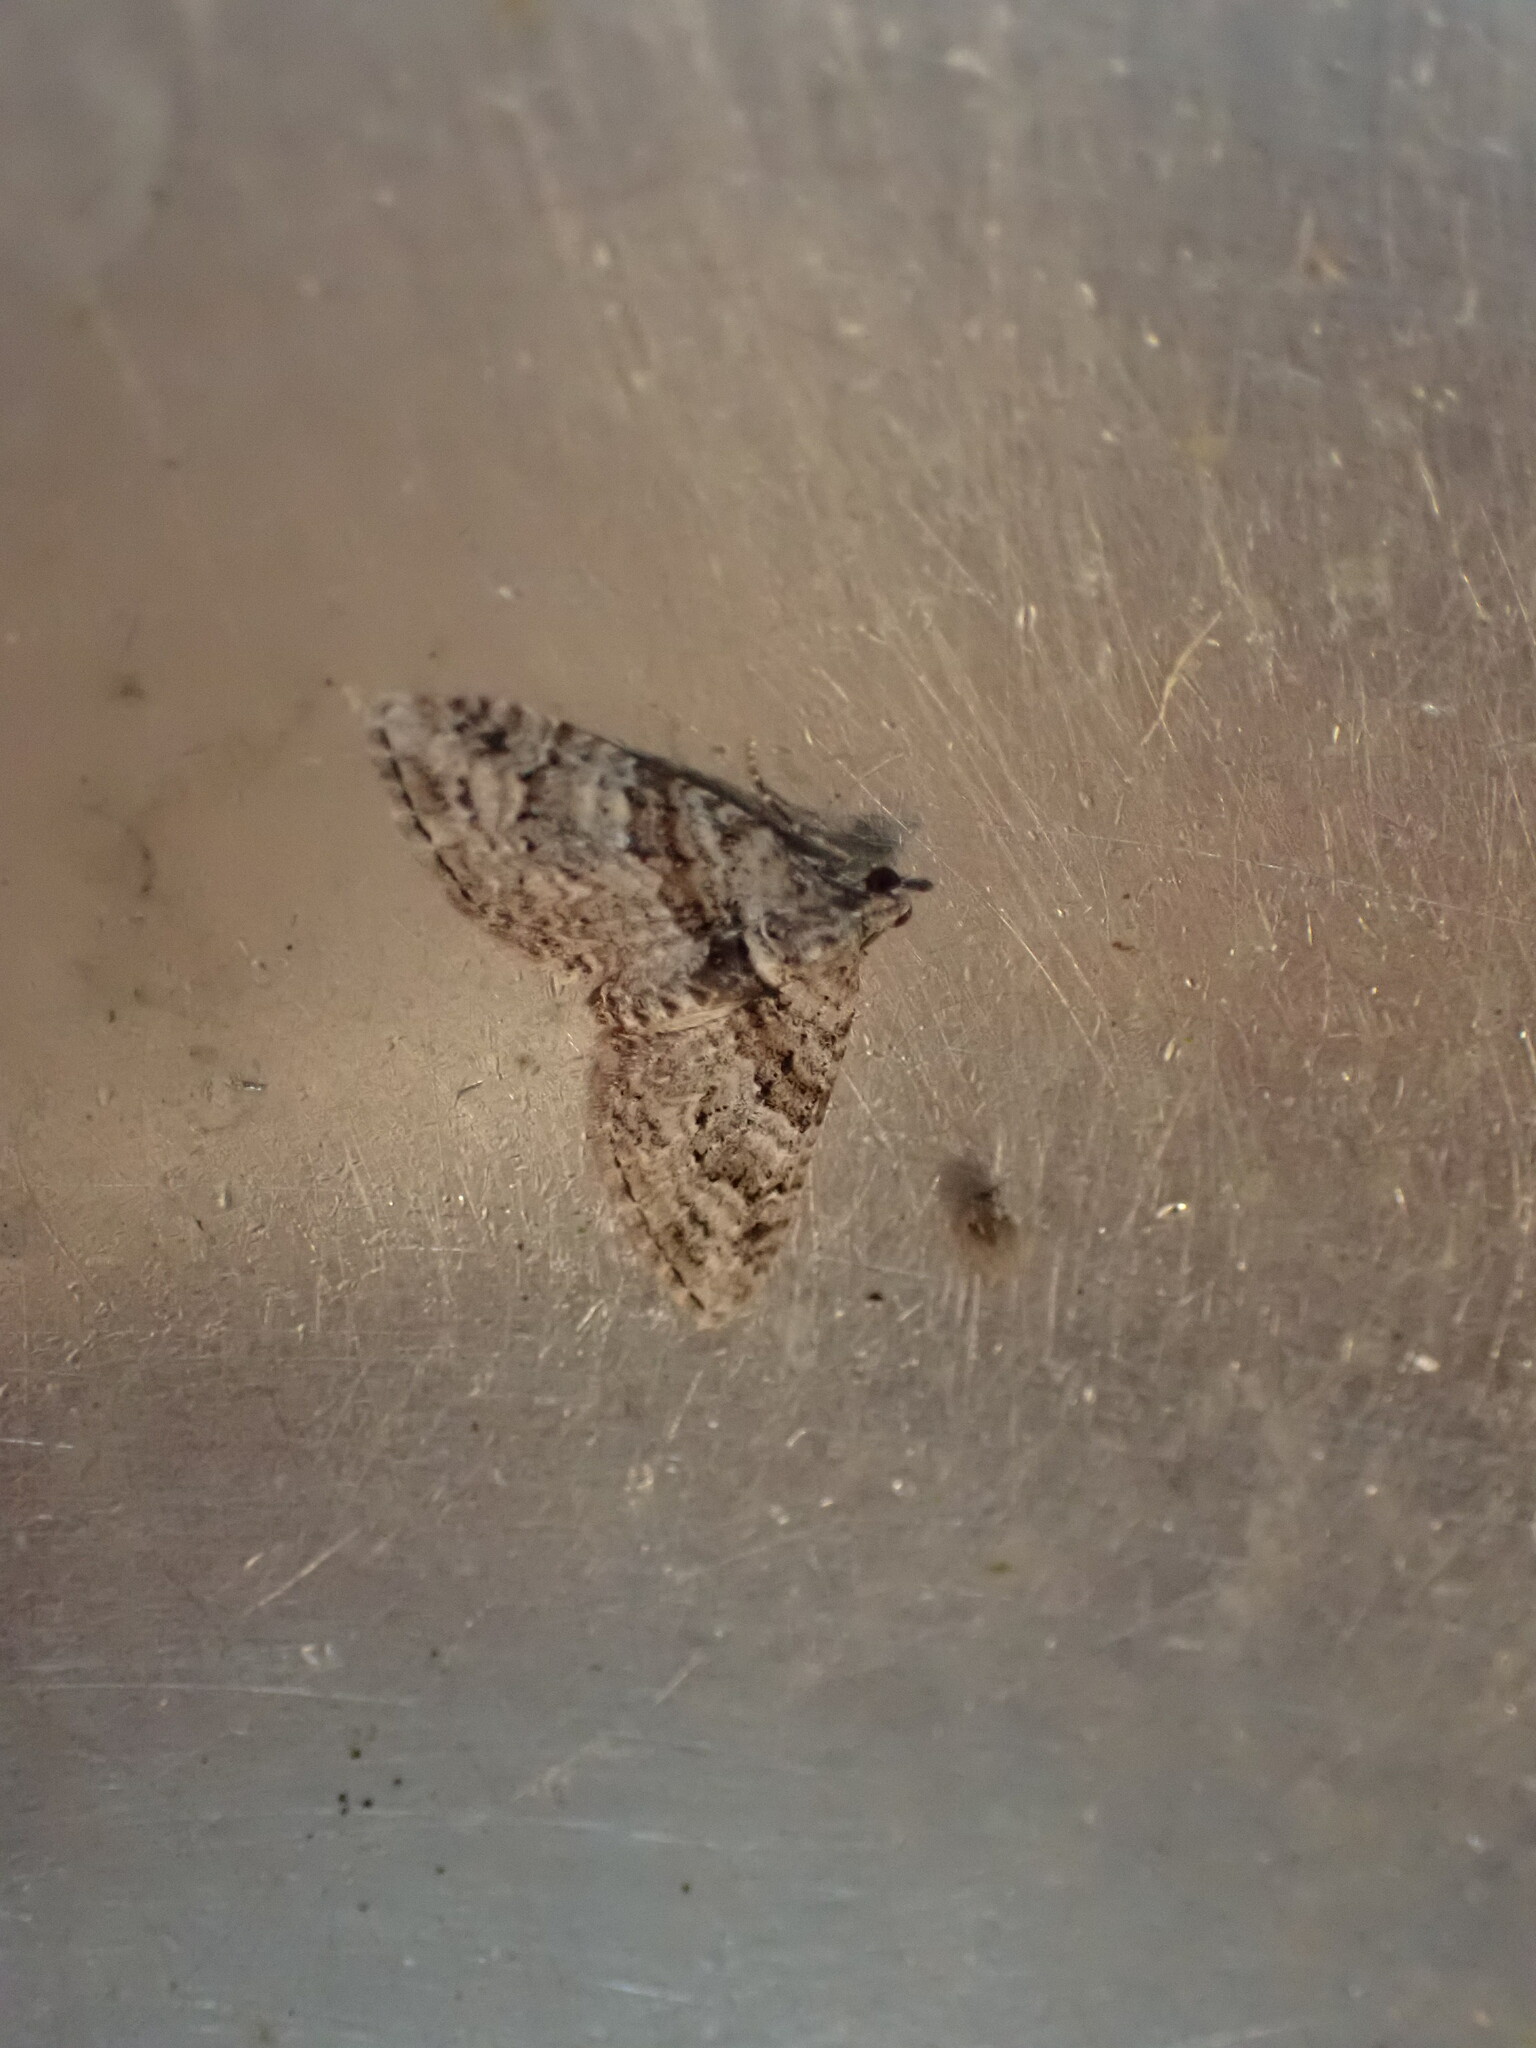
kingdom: Animalia
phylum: Arthropoda
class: Insecta
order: Lepidoptera
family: Geometridae
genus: Phrissogonus
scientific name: Phrissogonus laticostata
